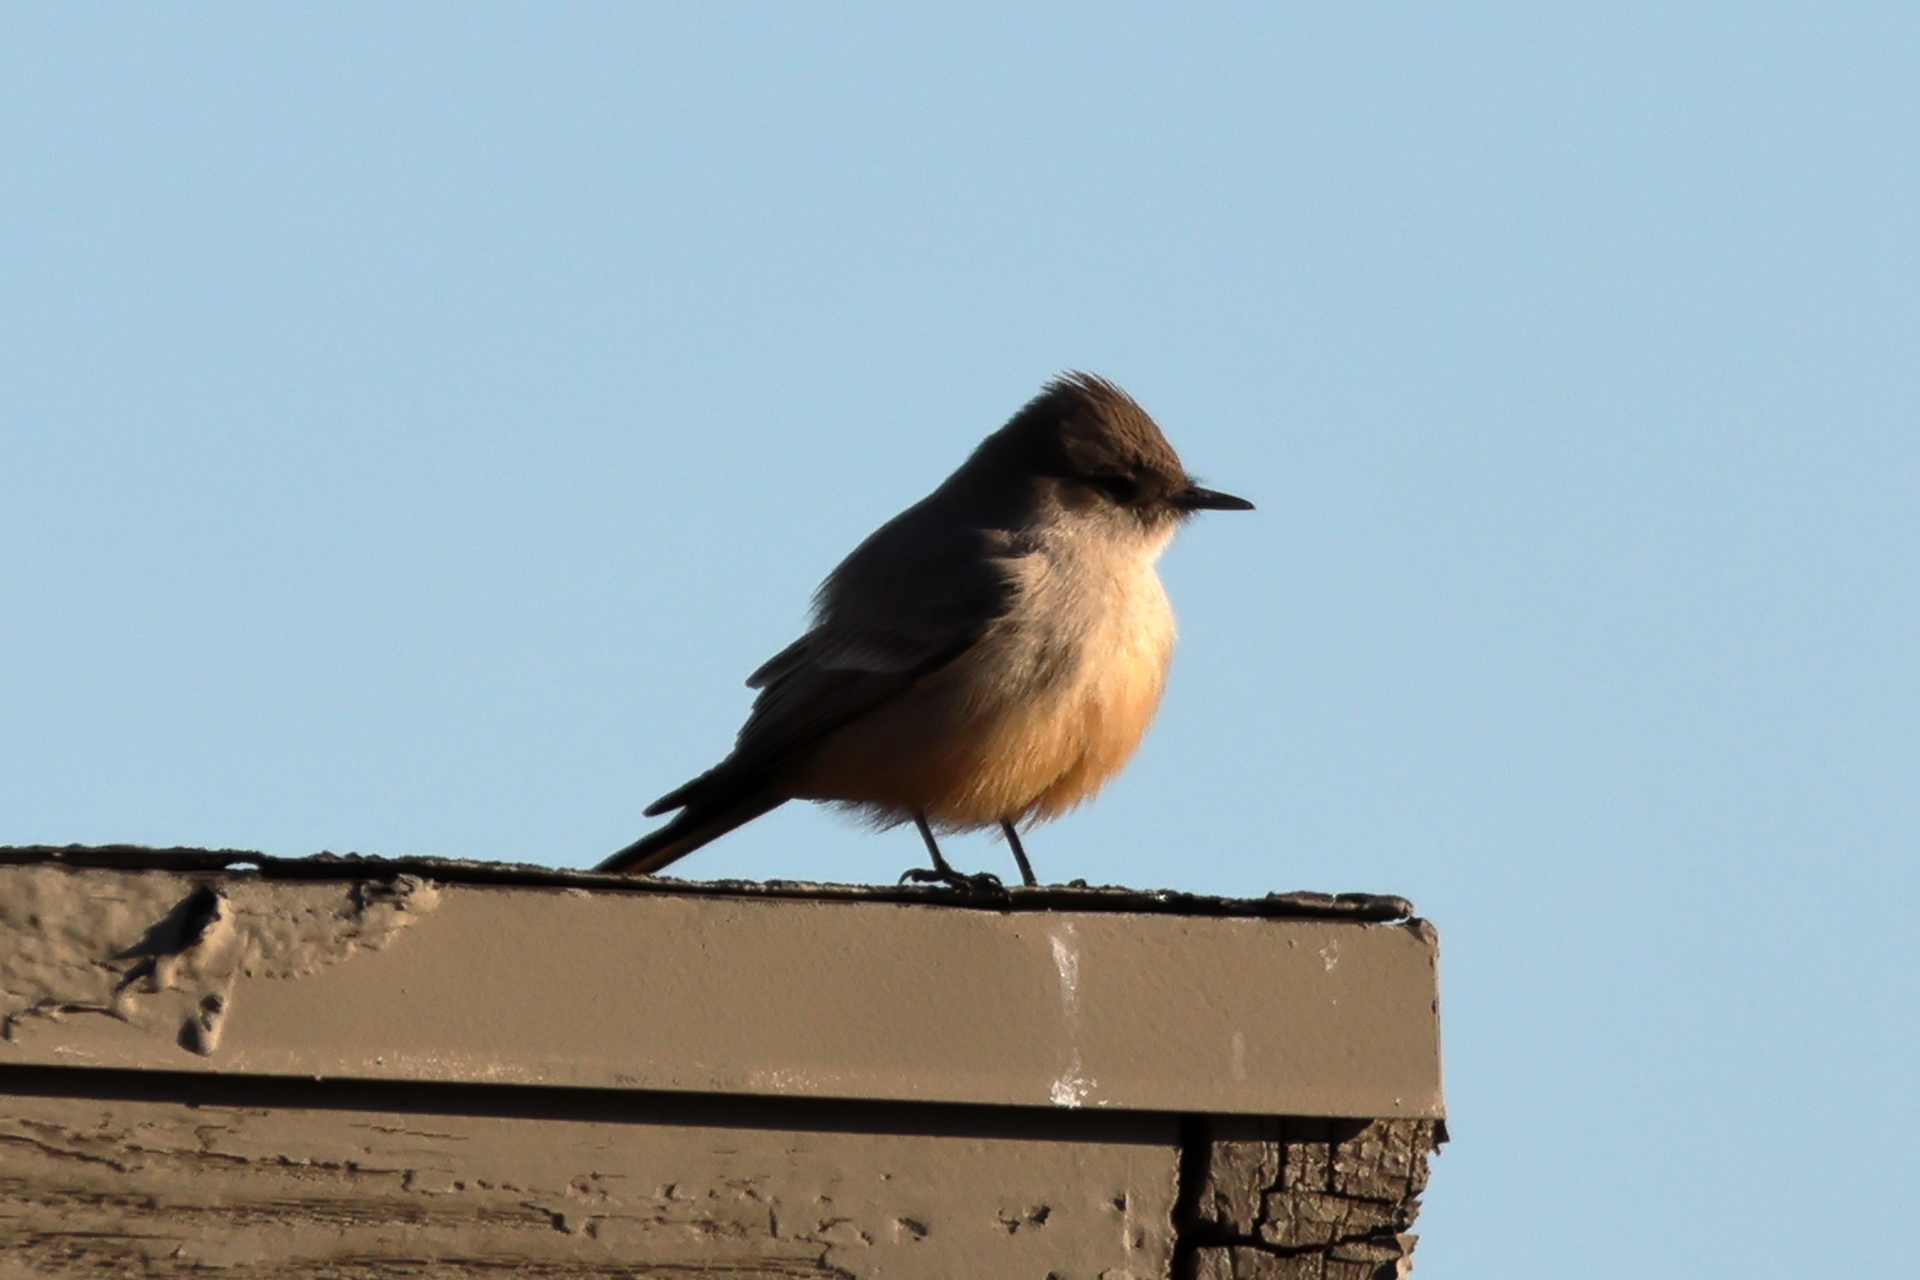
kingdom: Animalia
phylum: Chordata
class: Aves
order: Passeriformes
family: Tyrannidae
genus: Sayornis
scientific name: Sayornis saya
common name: Say's phoebe
